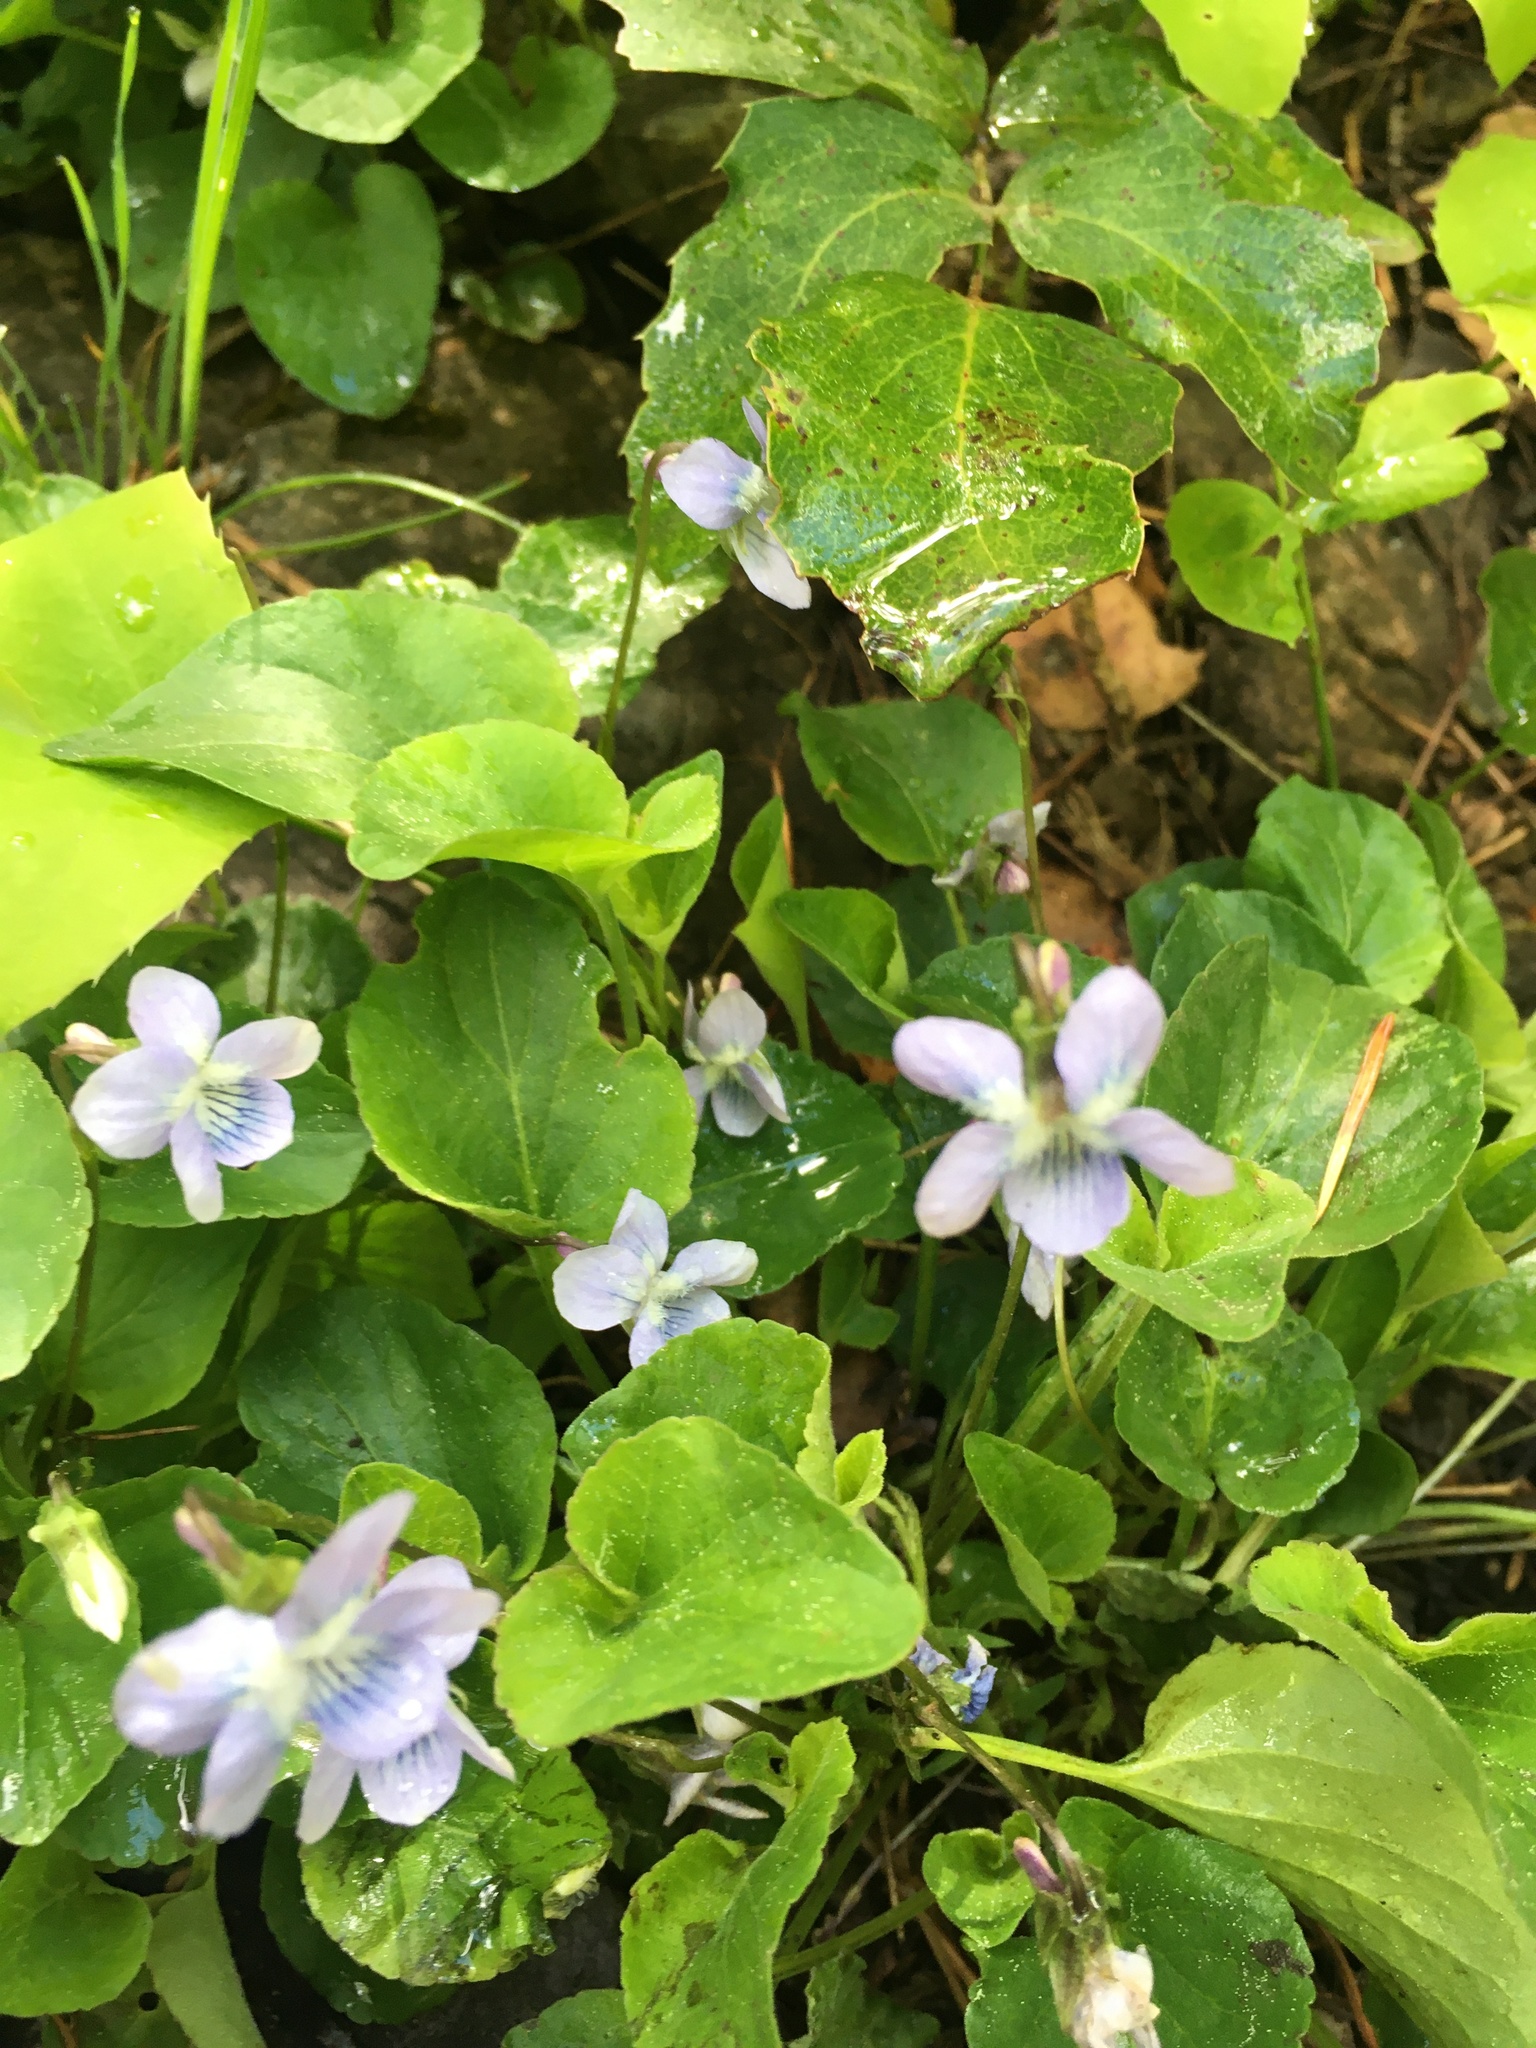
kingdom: Plantae
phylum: Tracheophyta
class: Magnoliopsida
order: Malpighiales
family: Violaceae
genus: Viola
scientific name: Viola adunca
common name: Sand violet
